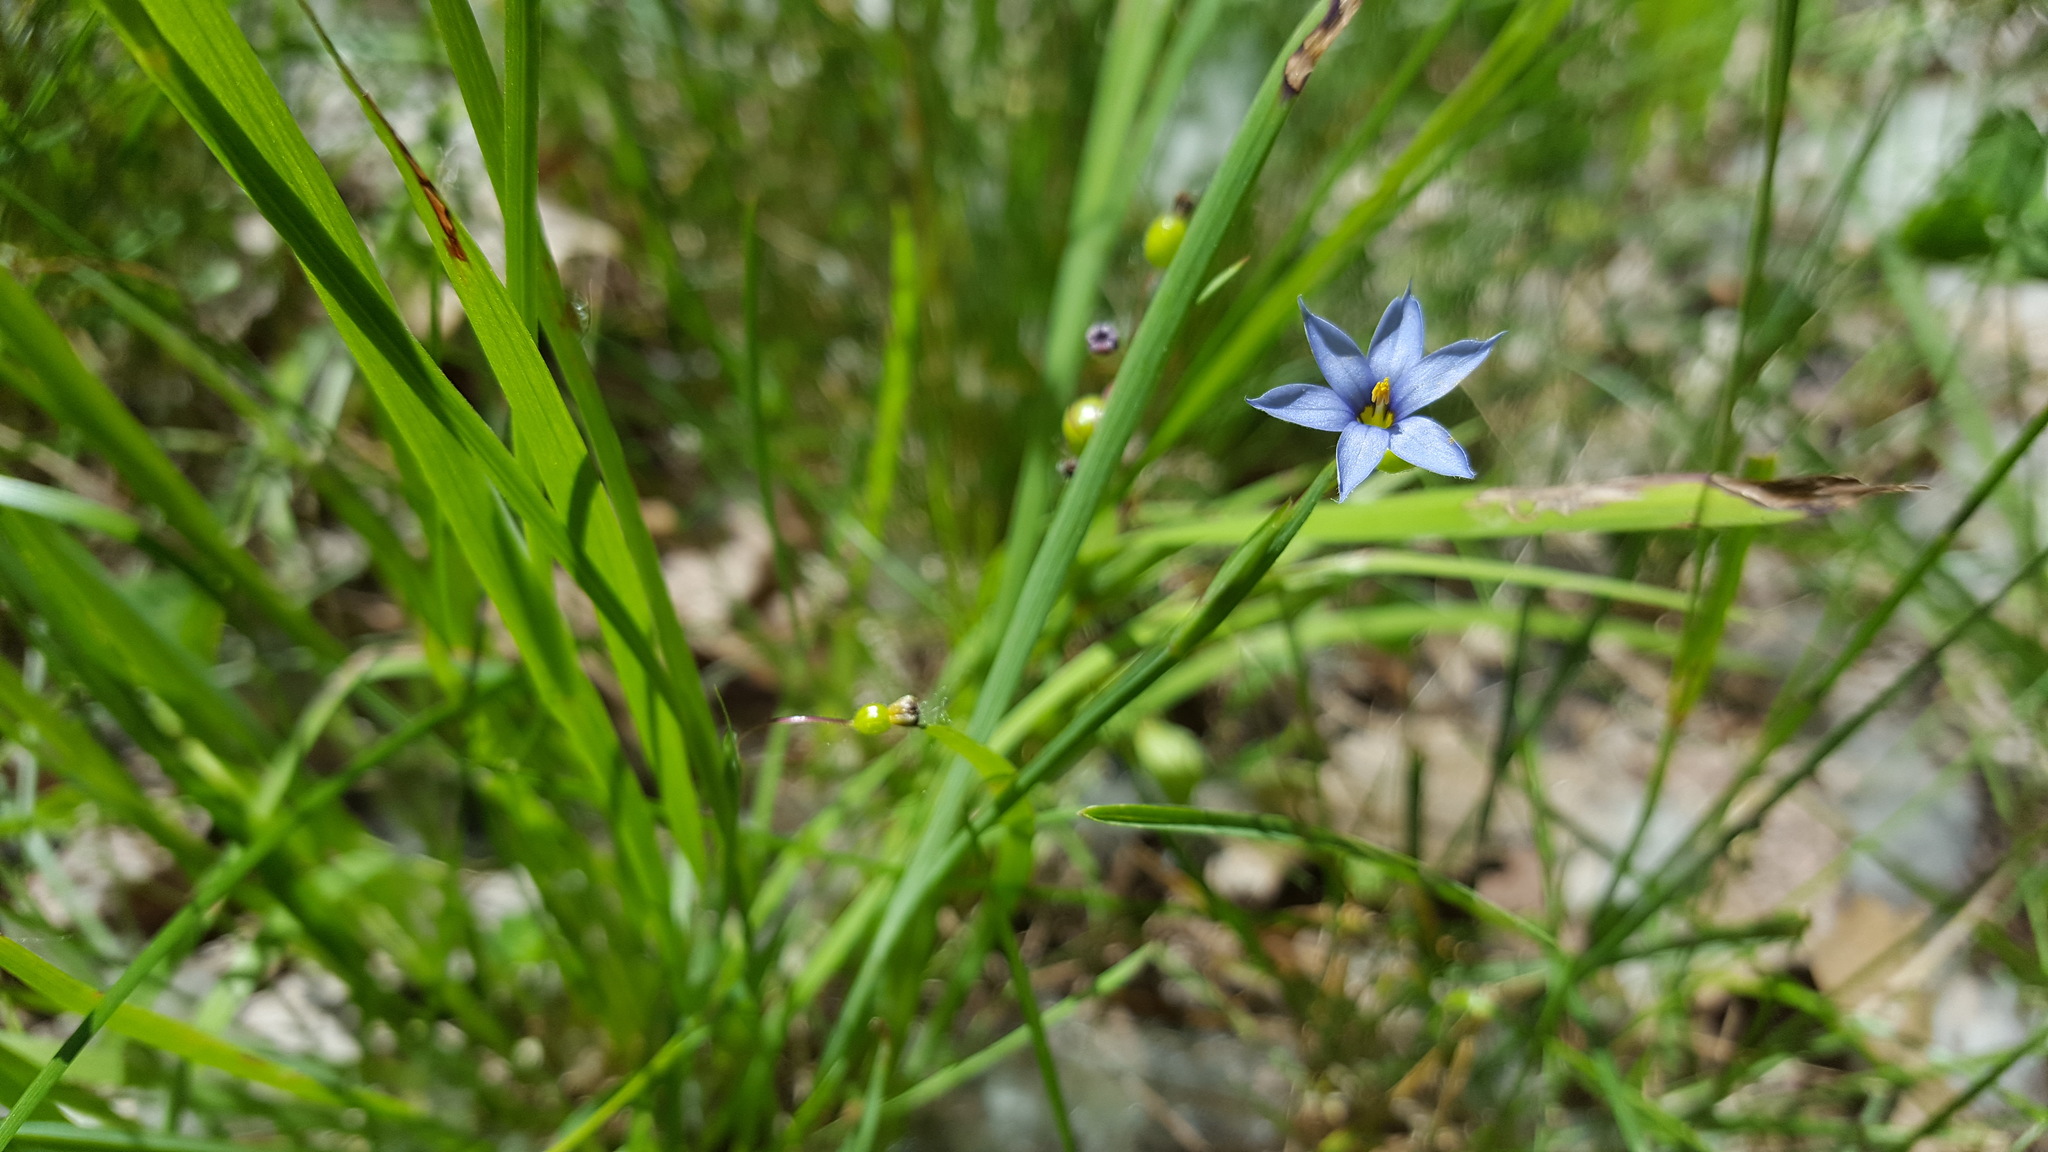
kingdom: Plantae
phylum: Tracheophyta
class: Liliopsida
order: Asparagales
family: Iridaceae
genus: Sisyrinchium
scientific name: Sisyrinchium atlanticum
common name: Eastern blue-eyed-grass
